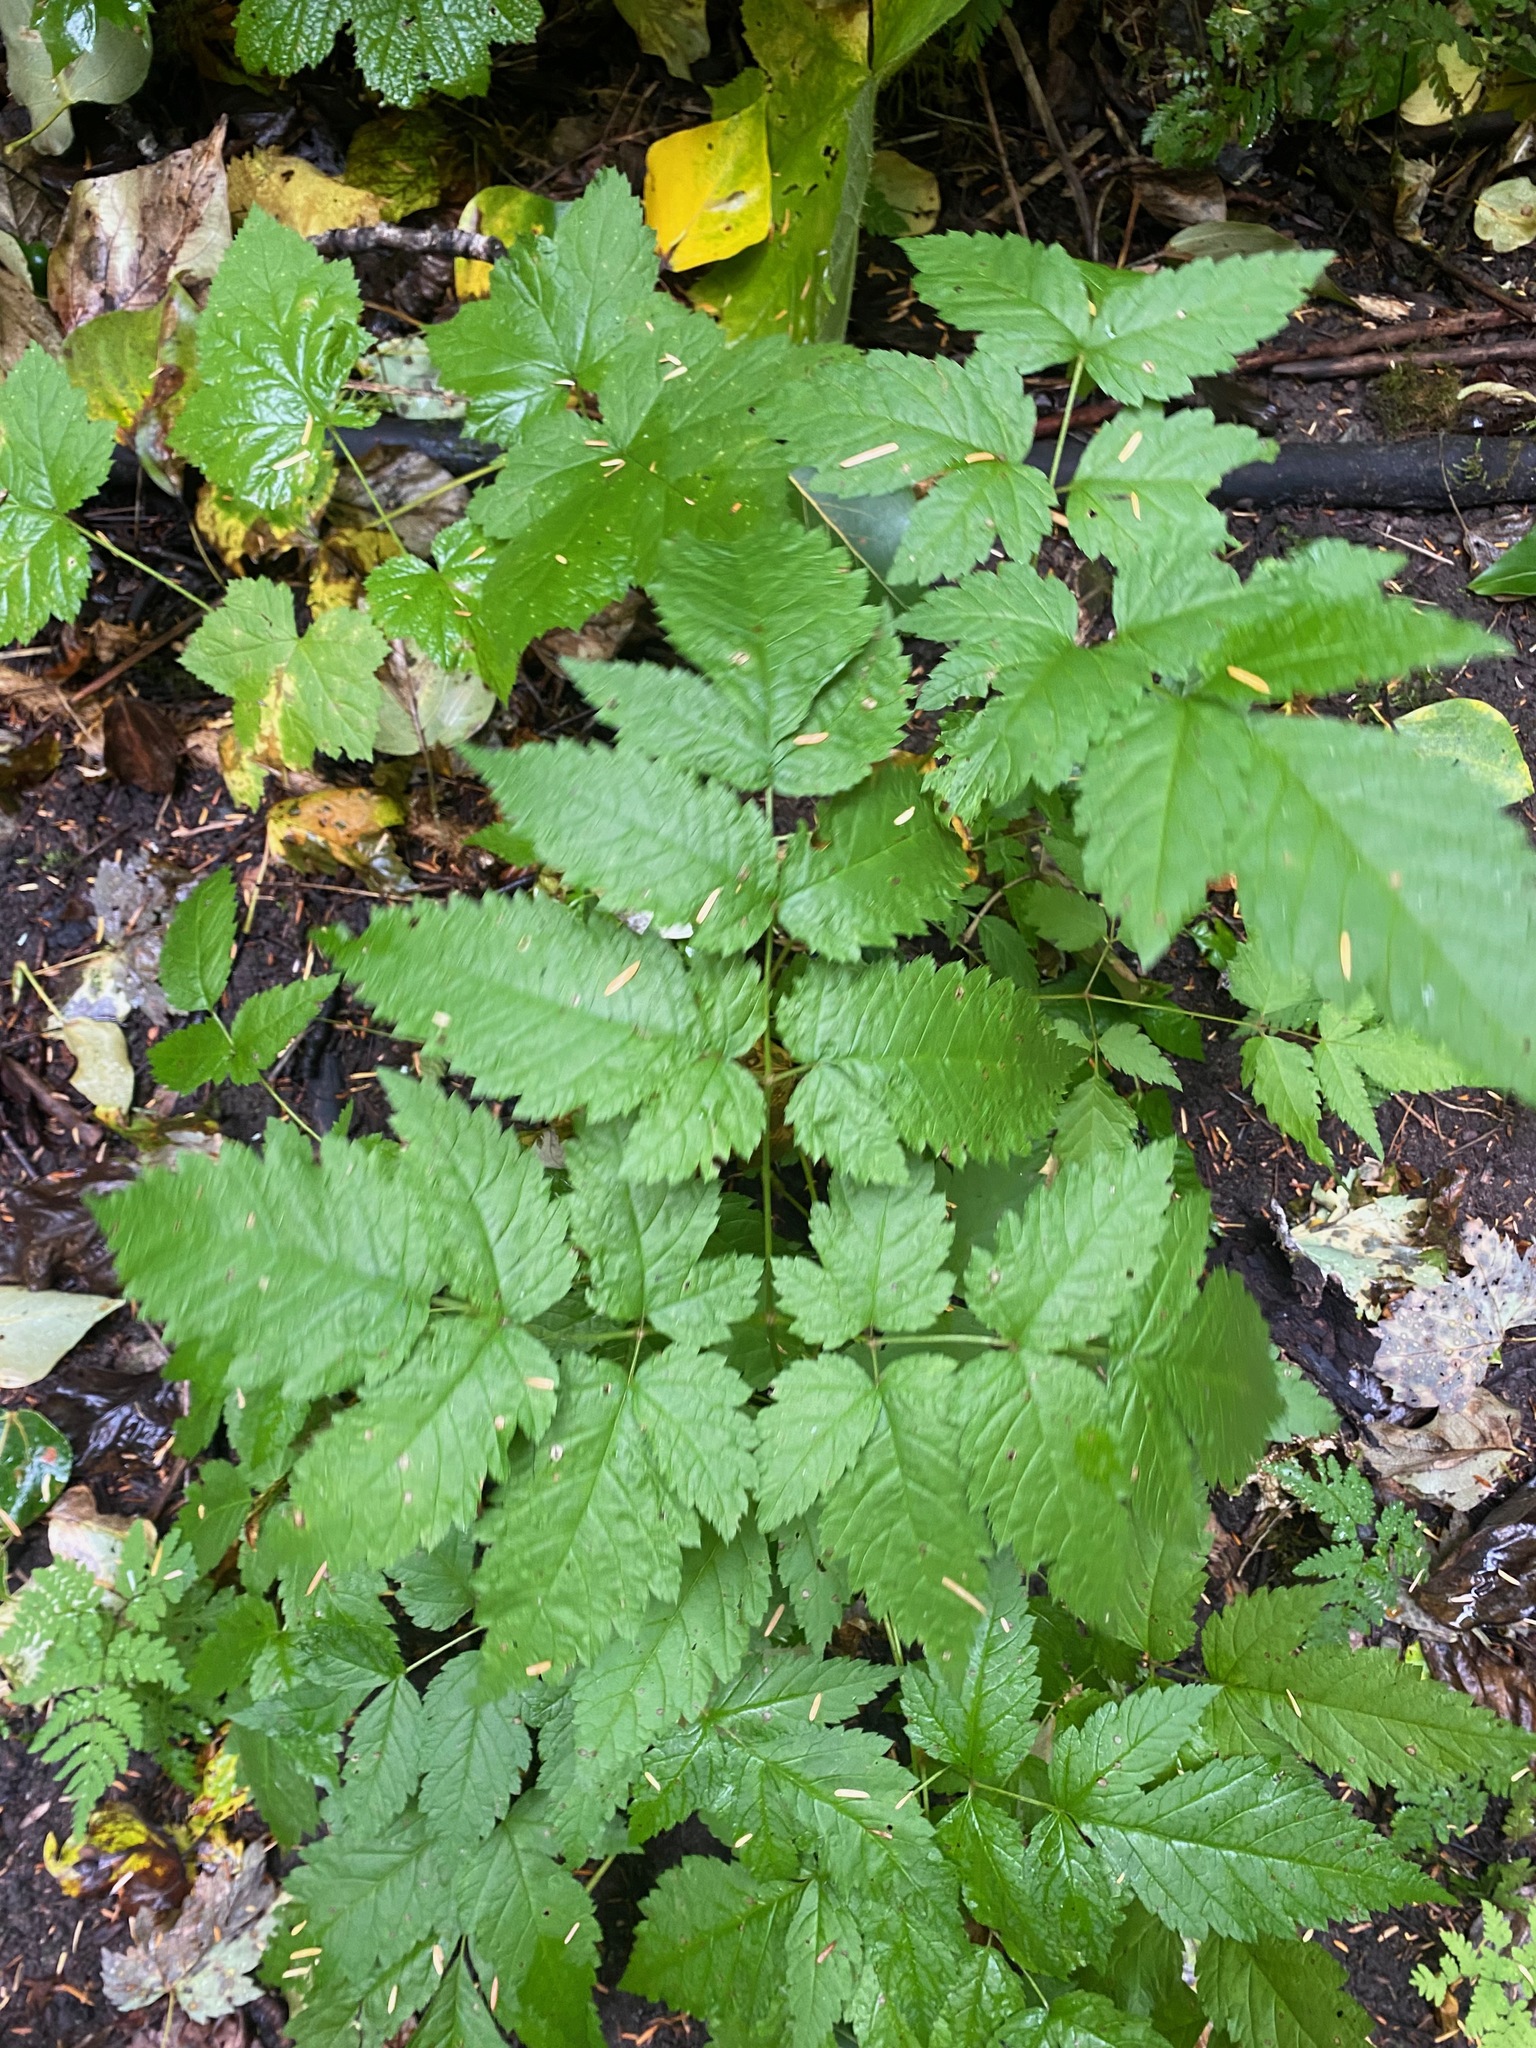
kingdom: Plantae
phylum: Tracheophyta
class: Magnoliopsida
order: Rosales
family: Rosaceae
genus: Aruncus
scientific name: Aruncus dioicus
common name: Buck's-beard
